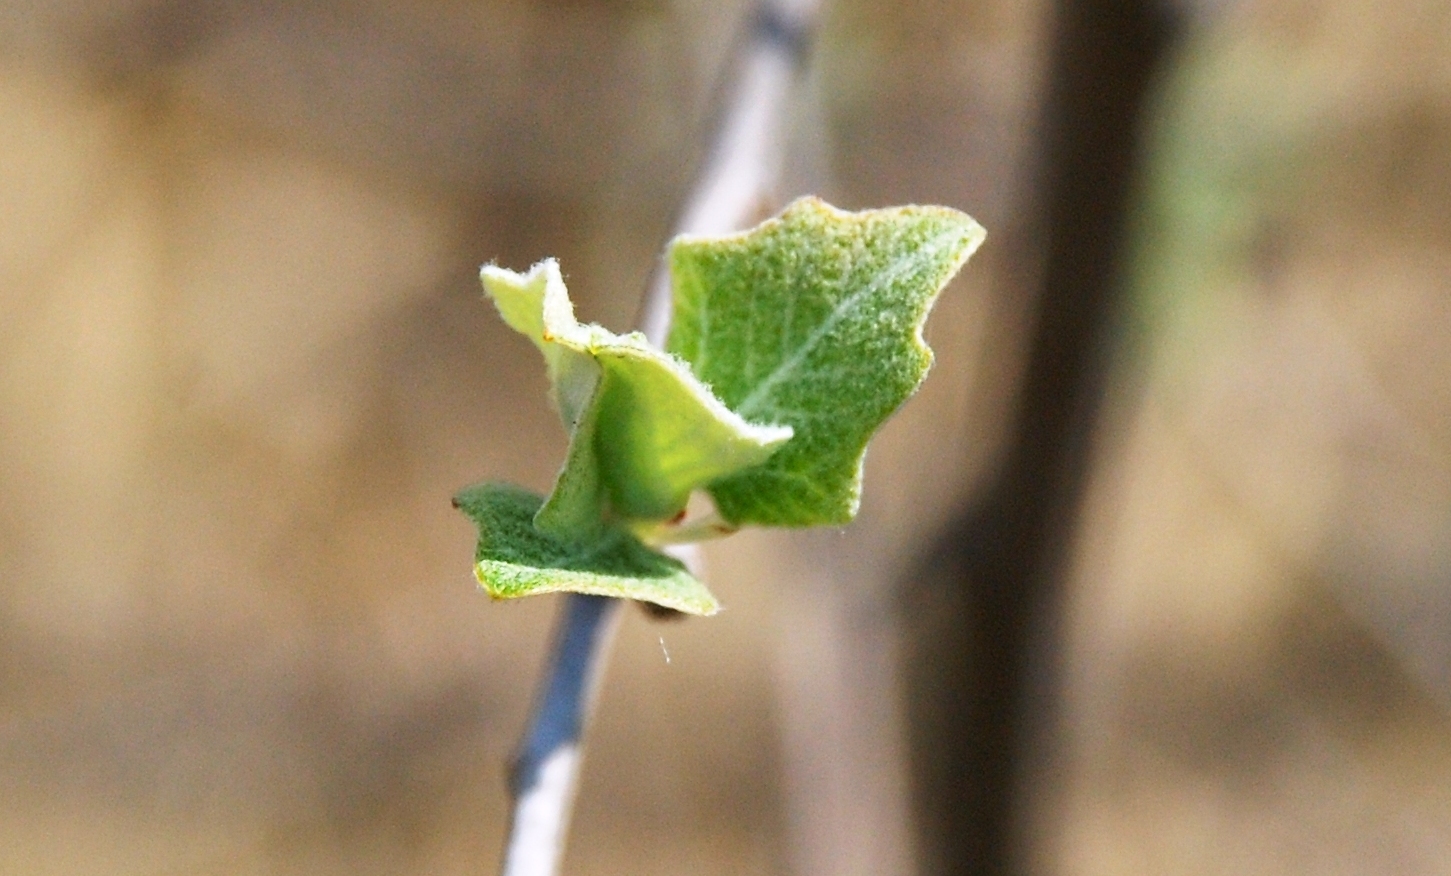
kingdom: Plantae
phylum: Tracheophyta
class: Magnoliopsida
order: Malpighiales
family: Salicaceae
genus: Populus
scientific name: Populus alba
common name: White poplar
